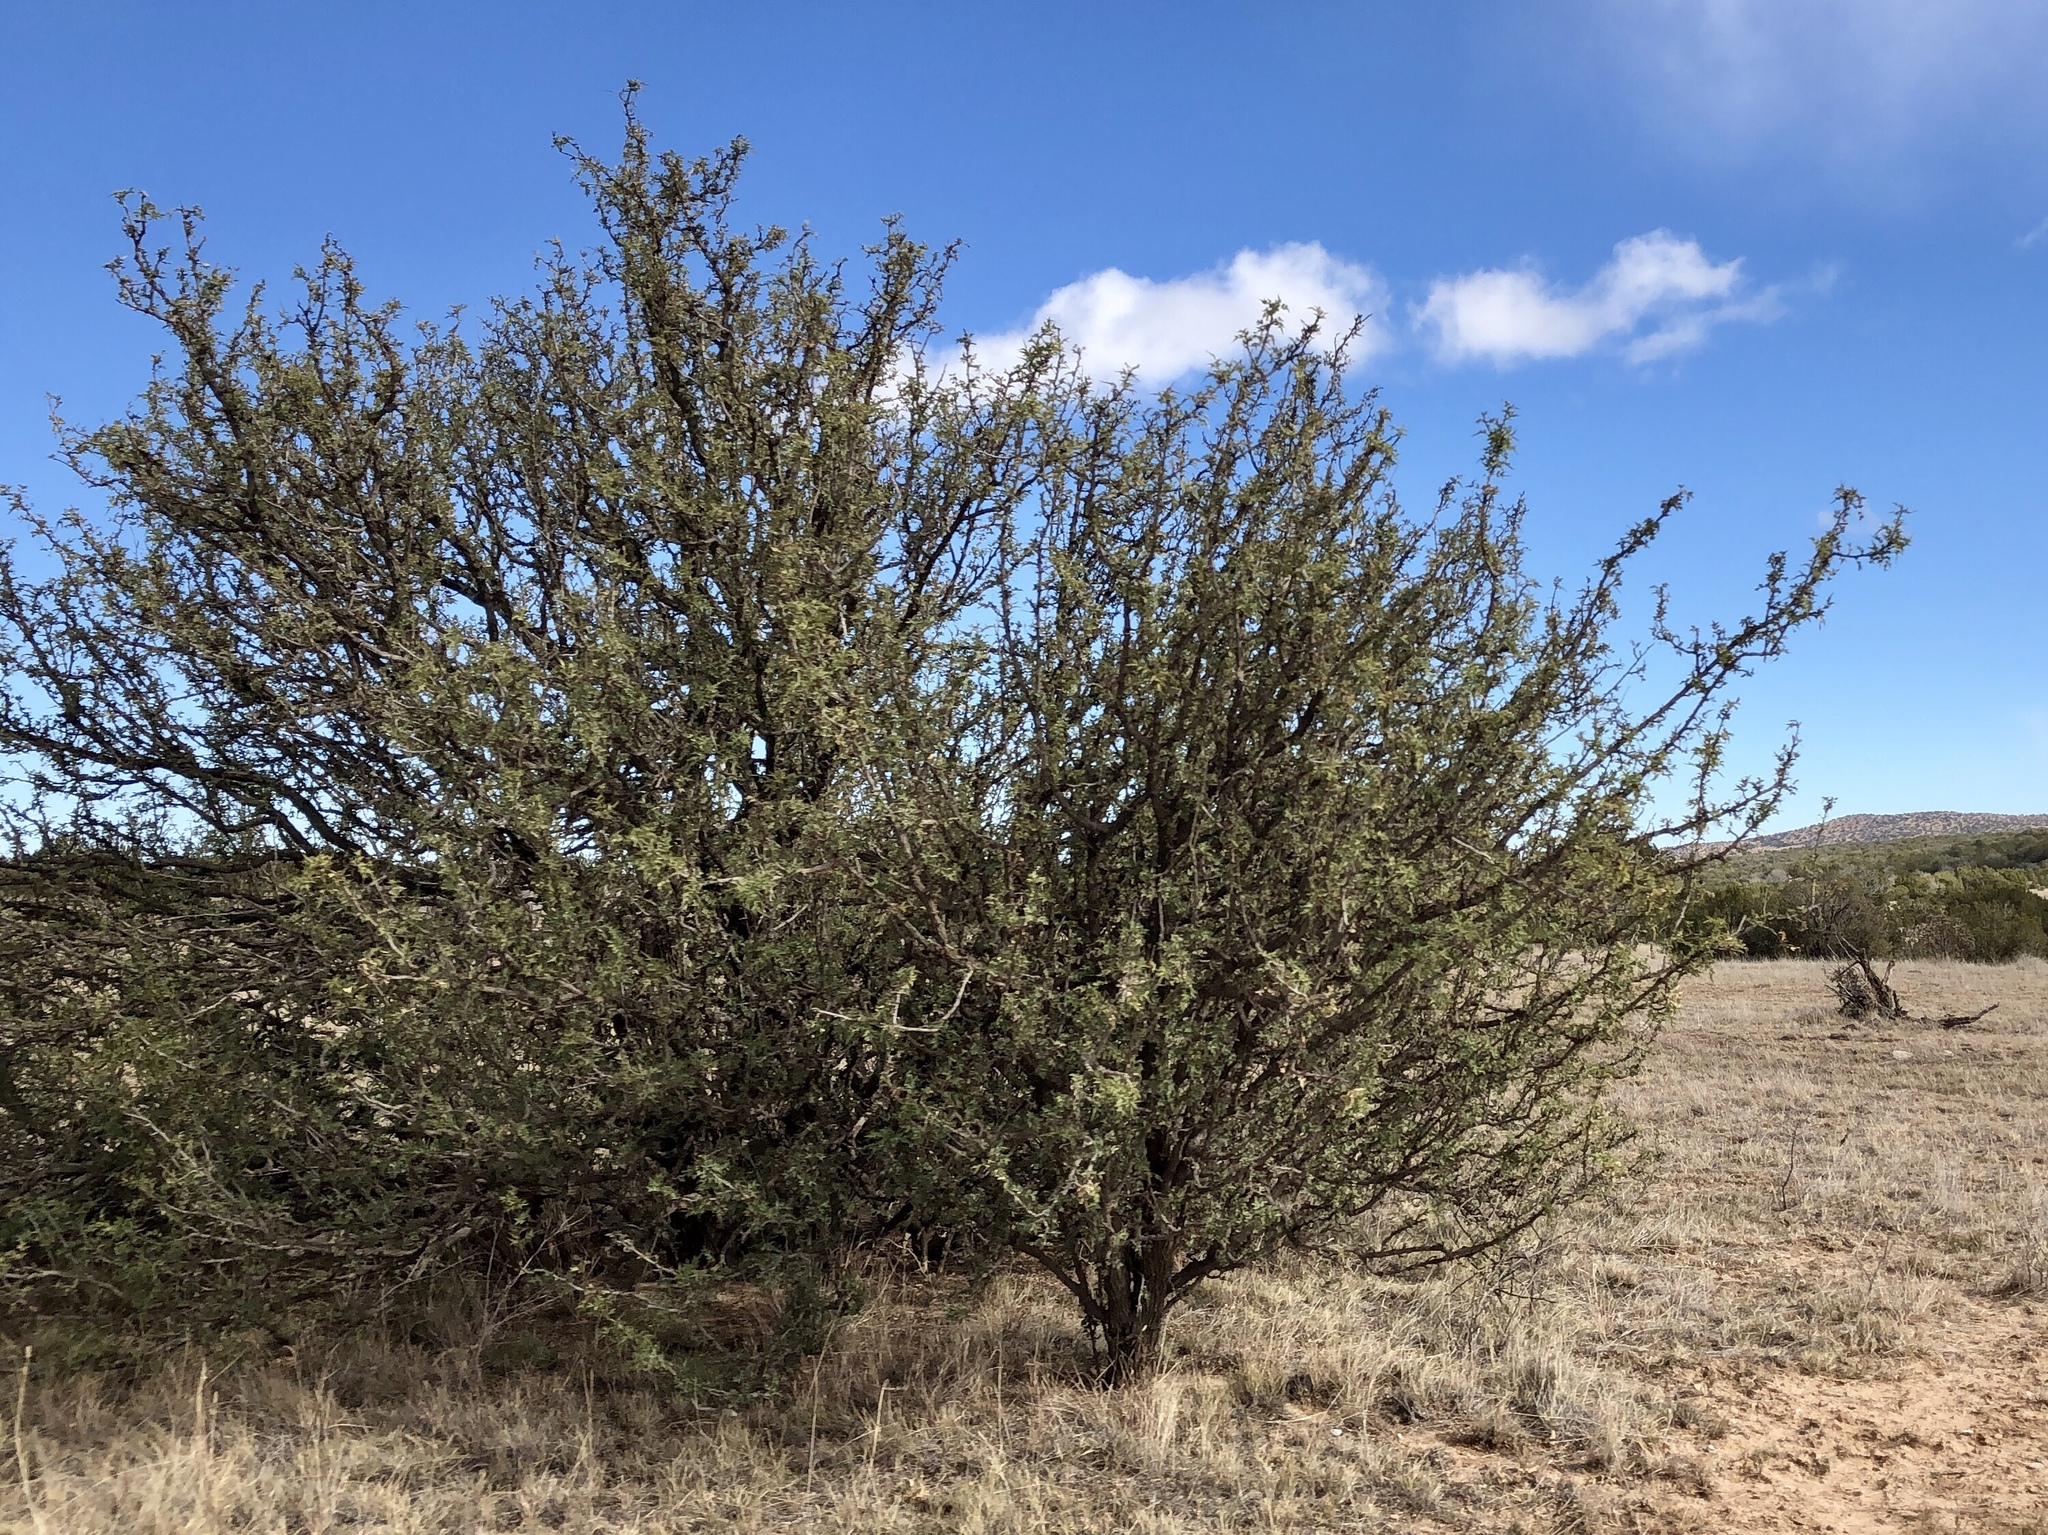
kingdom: Plantae
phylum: Tracheophyta
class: Magnoliopsida
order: Fabales
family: Fabaceae
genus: Prosopis
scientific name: Prosopis glandulosa
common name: Honey mesquite
